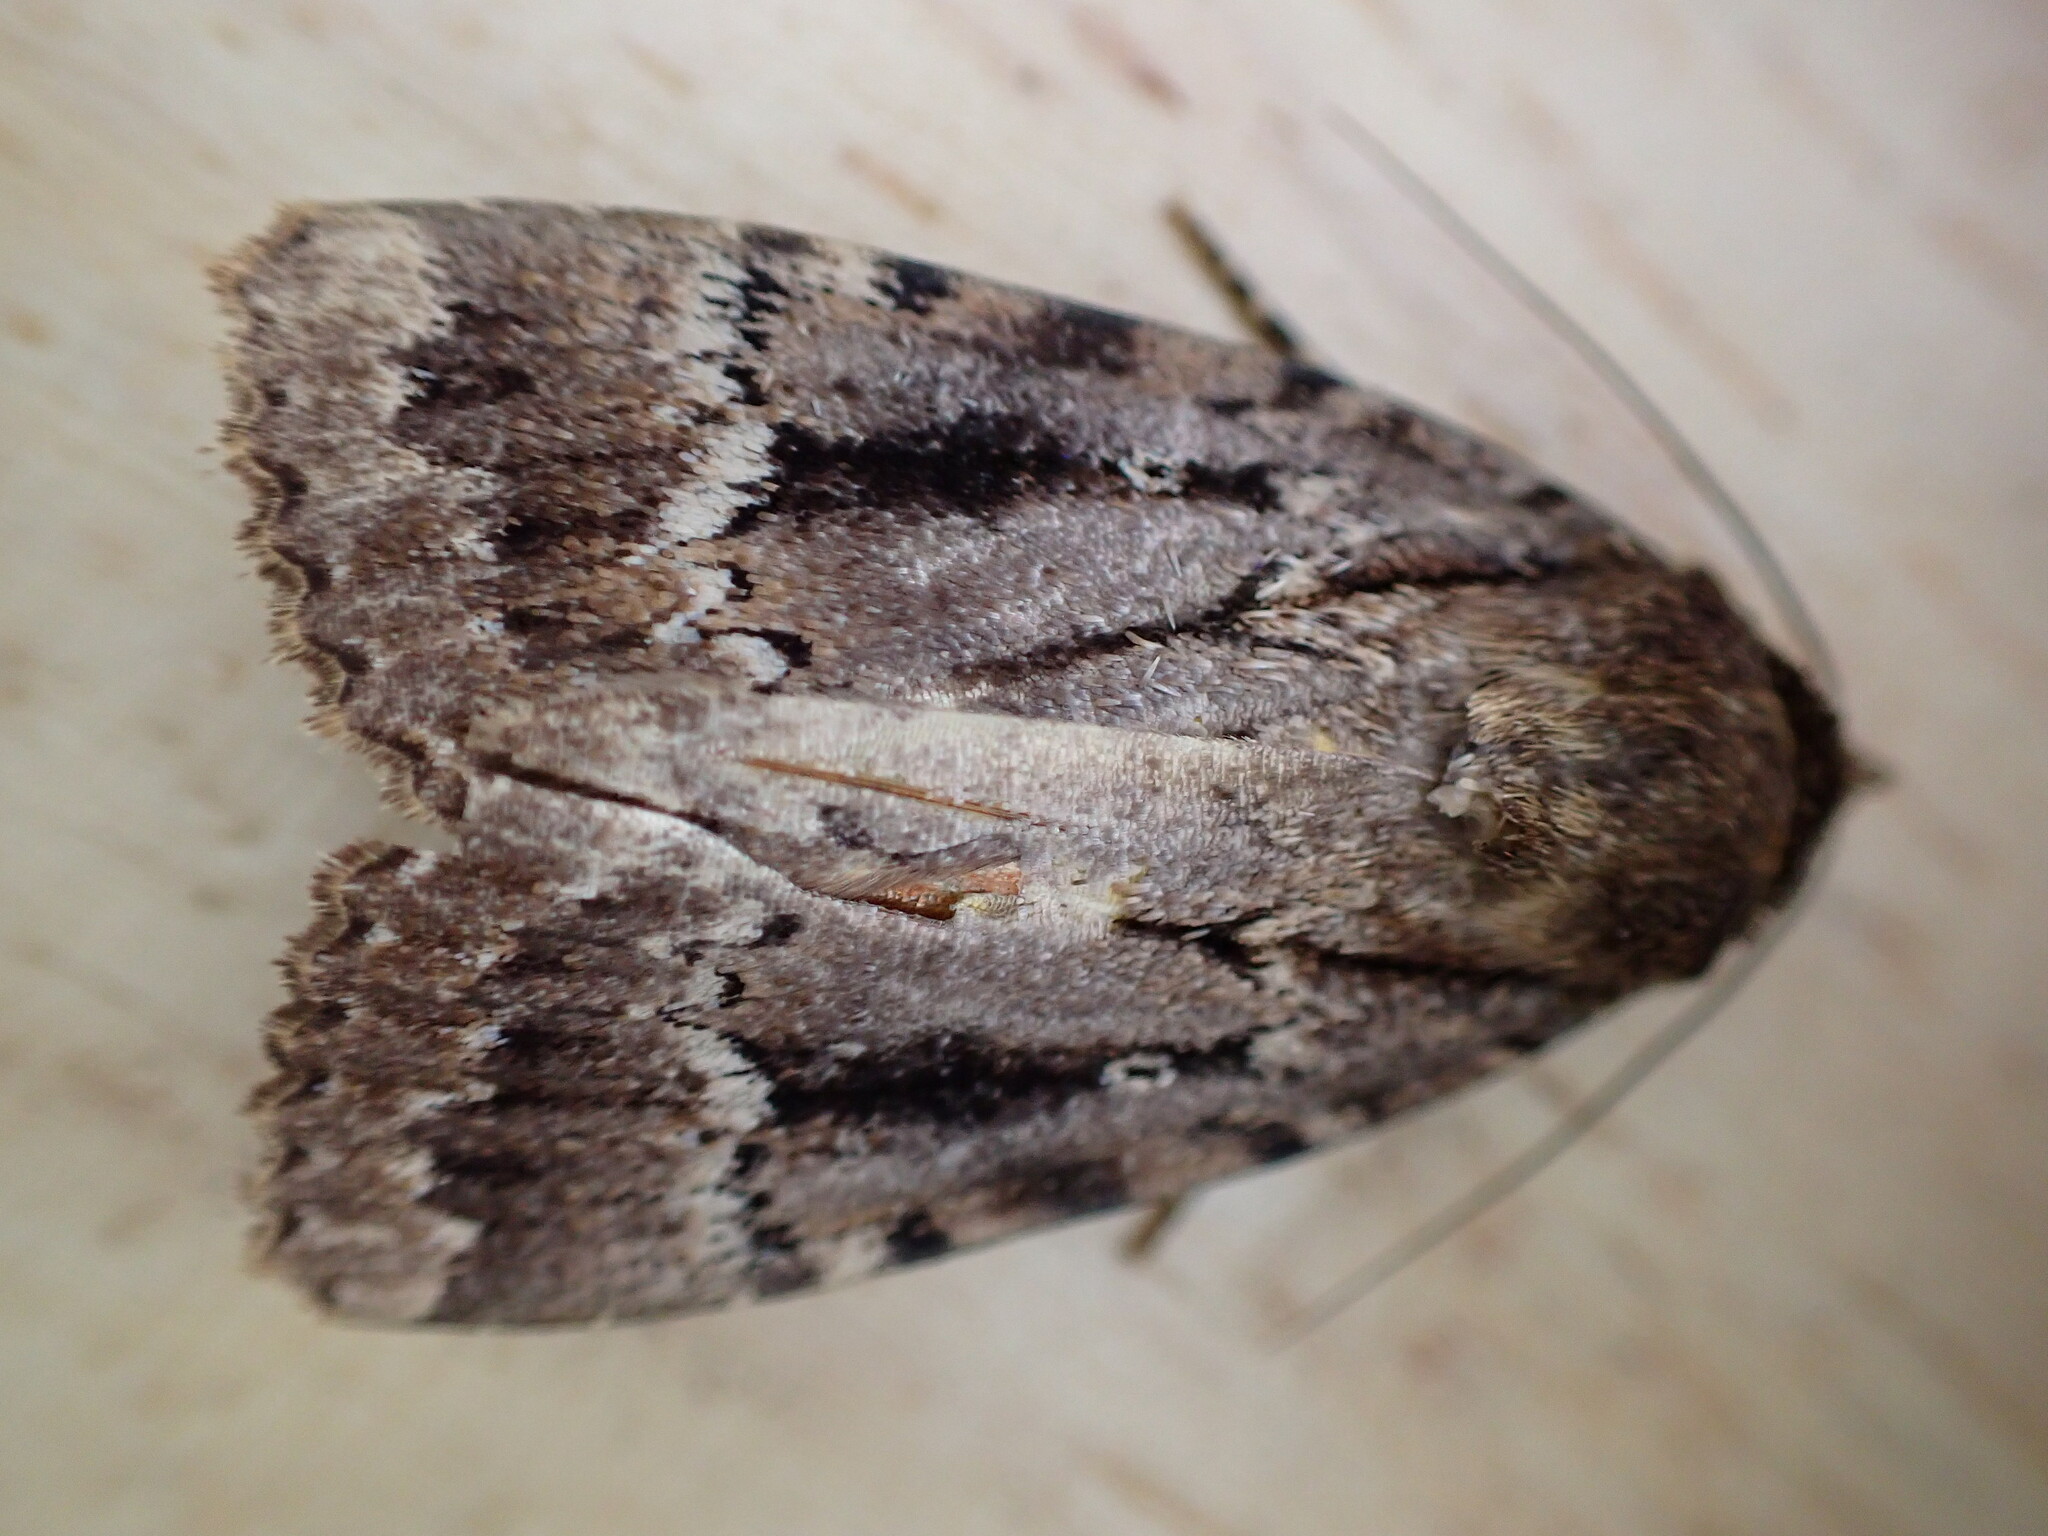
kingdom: Animalia
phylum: Arthropoda
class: Insecta
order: Lepidoptera
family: Noctuidae
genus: Amphipyra
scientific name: Amphipyra pyramidea
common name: Copper underwing
